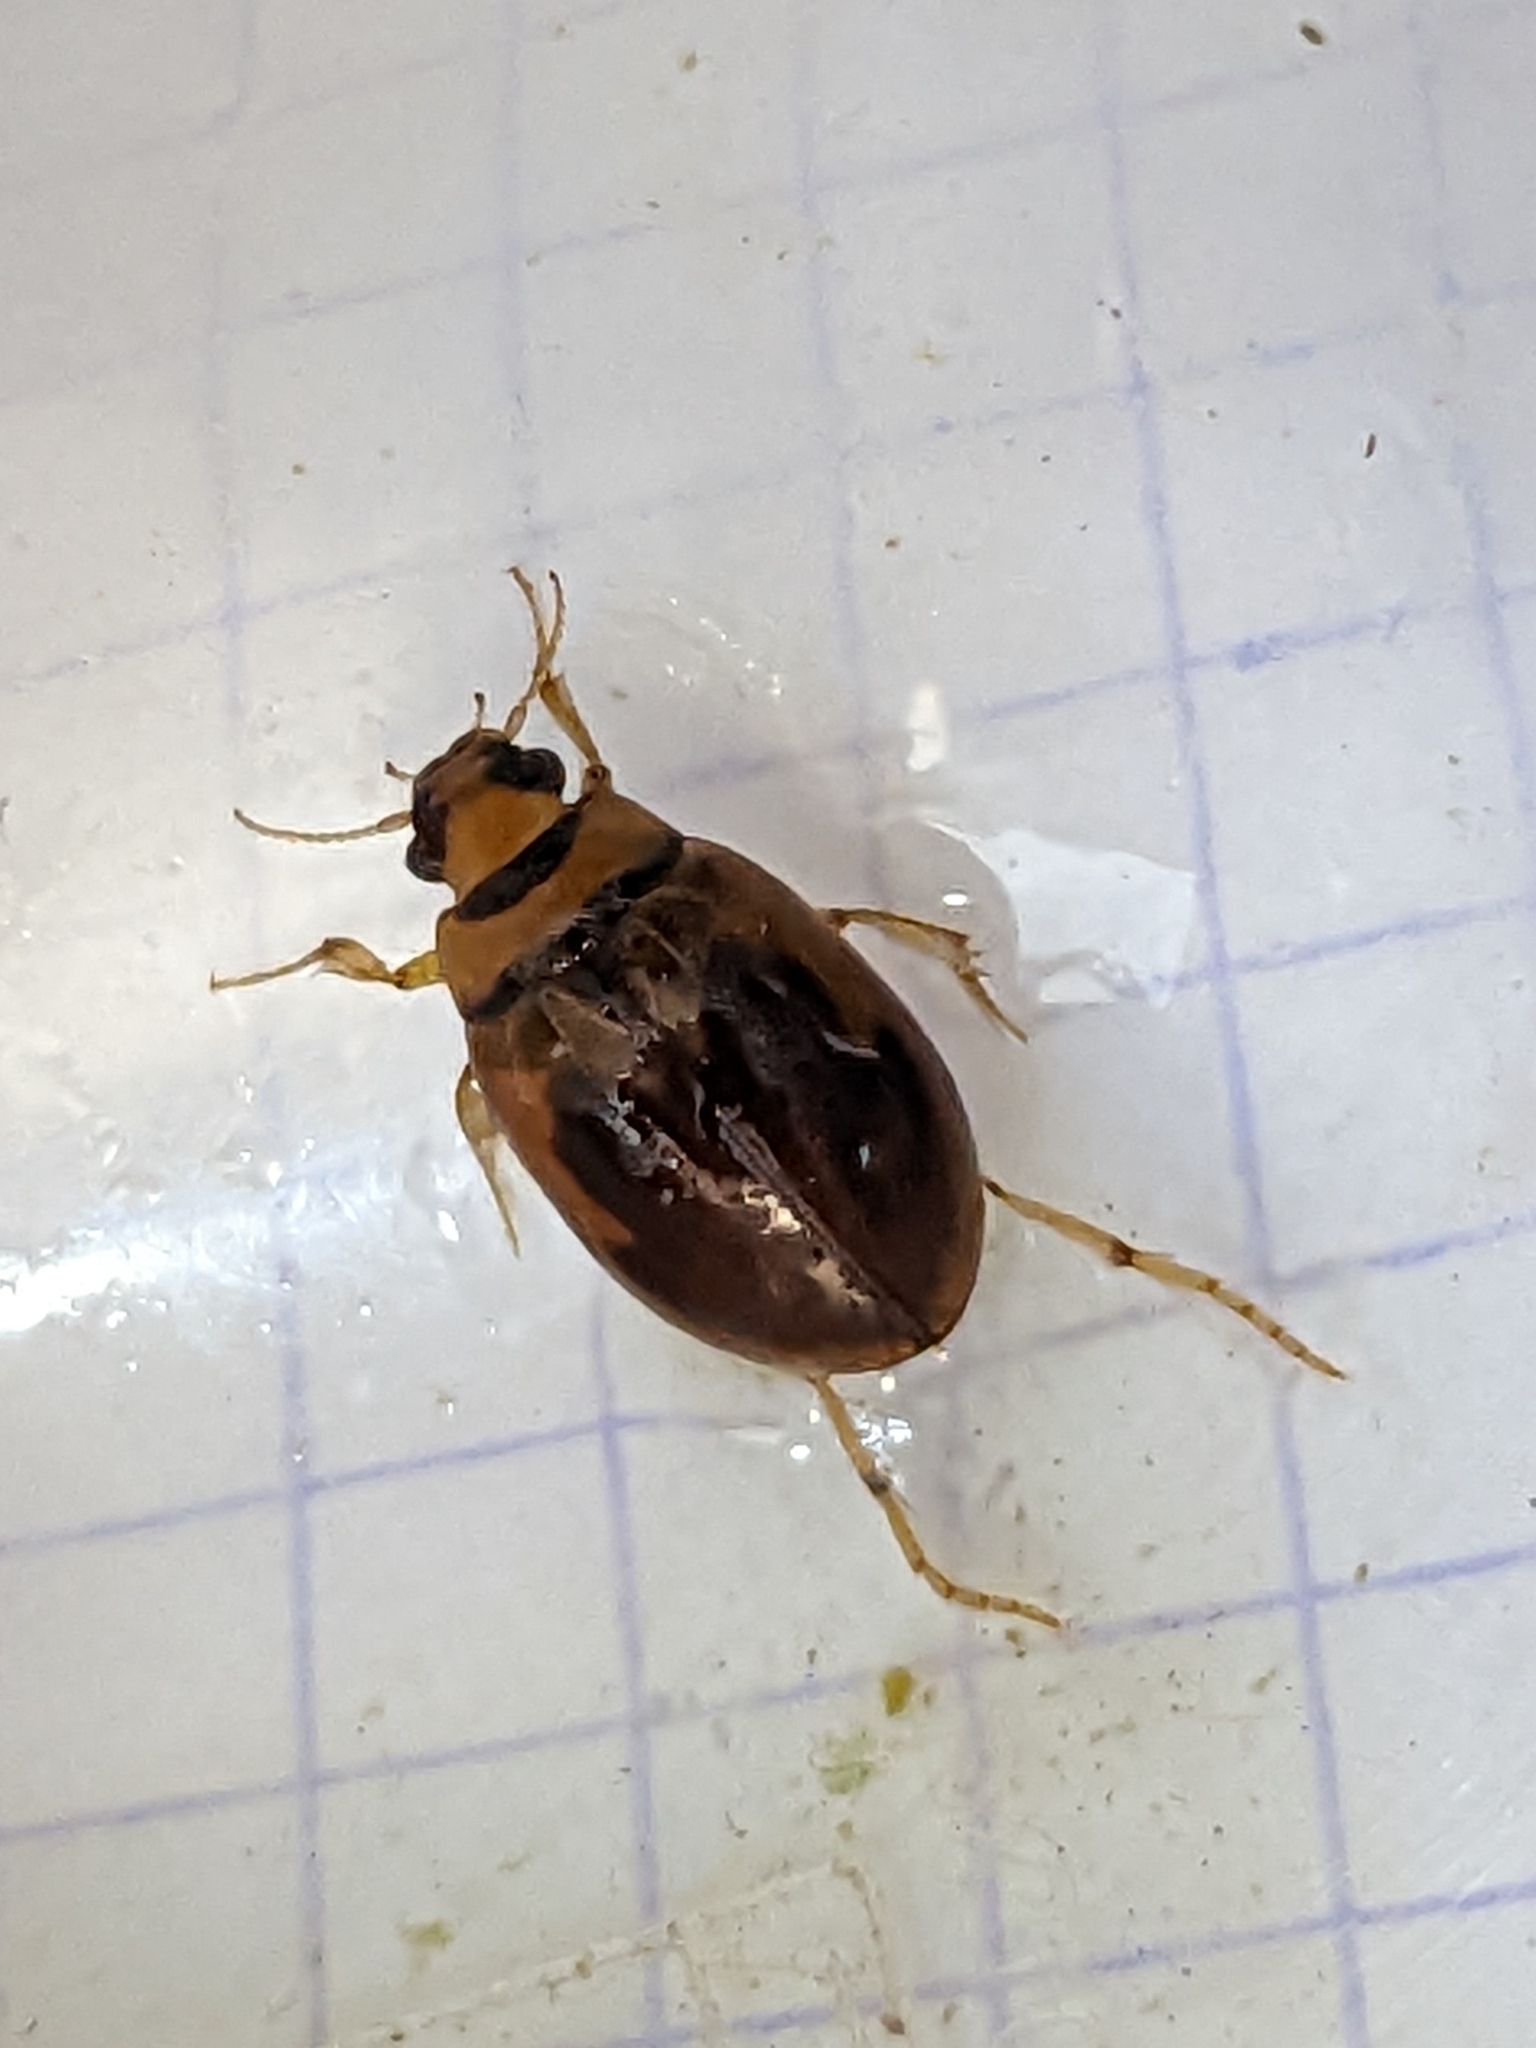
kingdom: Animalia
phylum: Arthropoda
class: Insecta
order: Coleoptera
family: Hygrobiidae
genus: Hygrobia
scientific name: Hygrobia hermanni
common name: Screech beetle
